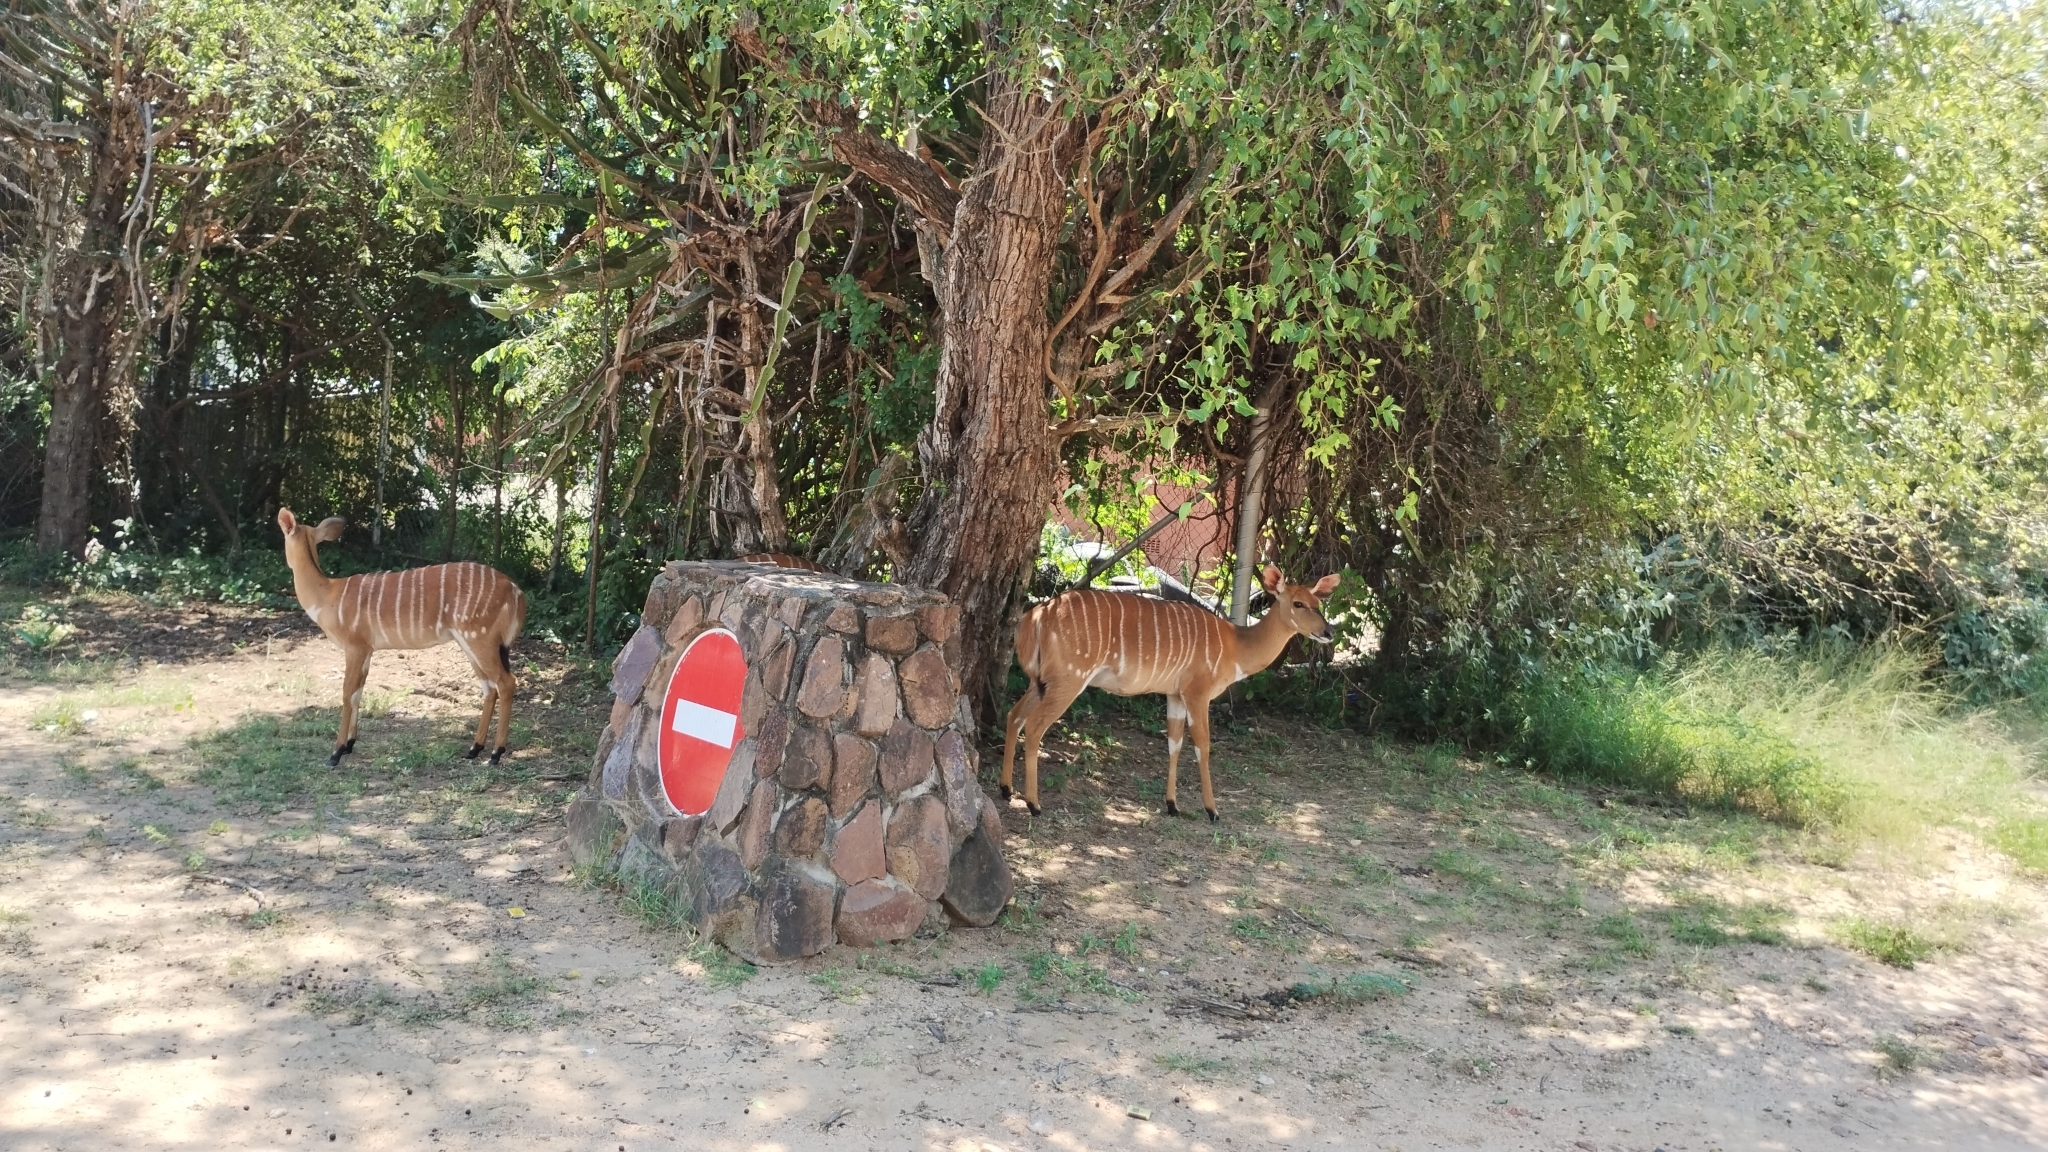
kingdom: Animalia
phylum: Chordata
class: Mammalia
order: Artiodactyla
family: Bovidae
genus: Tragelaphus
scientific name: Tragelaphus angasii
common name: Nyala
